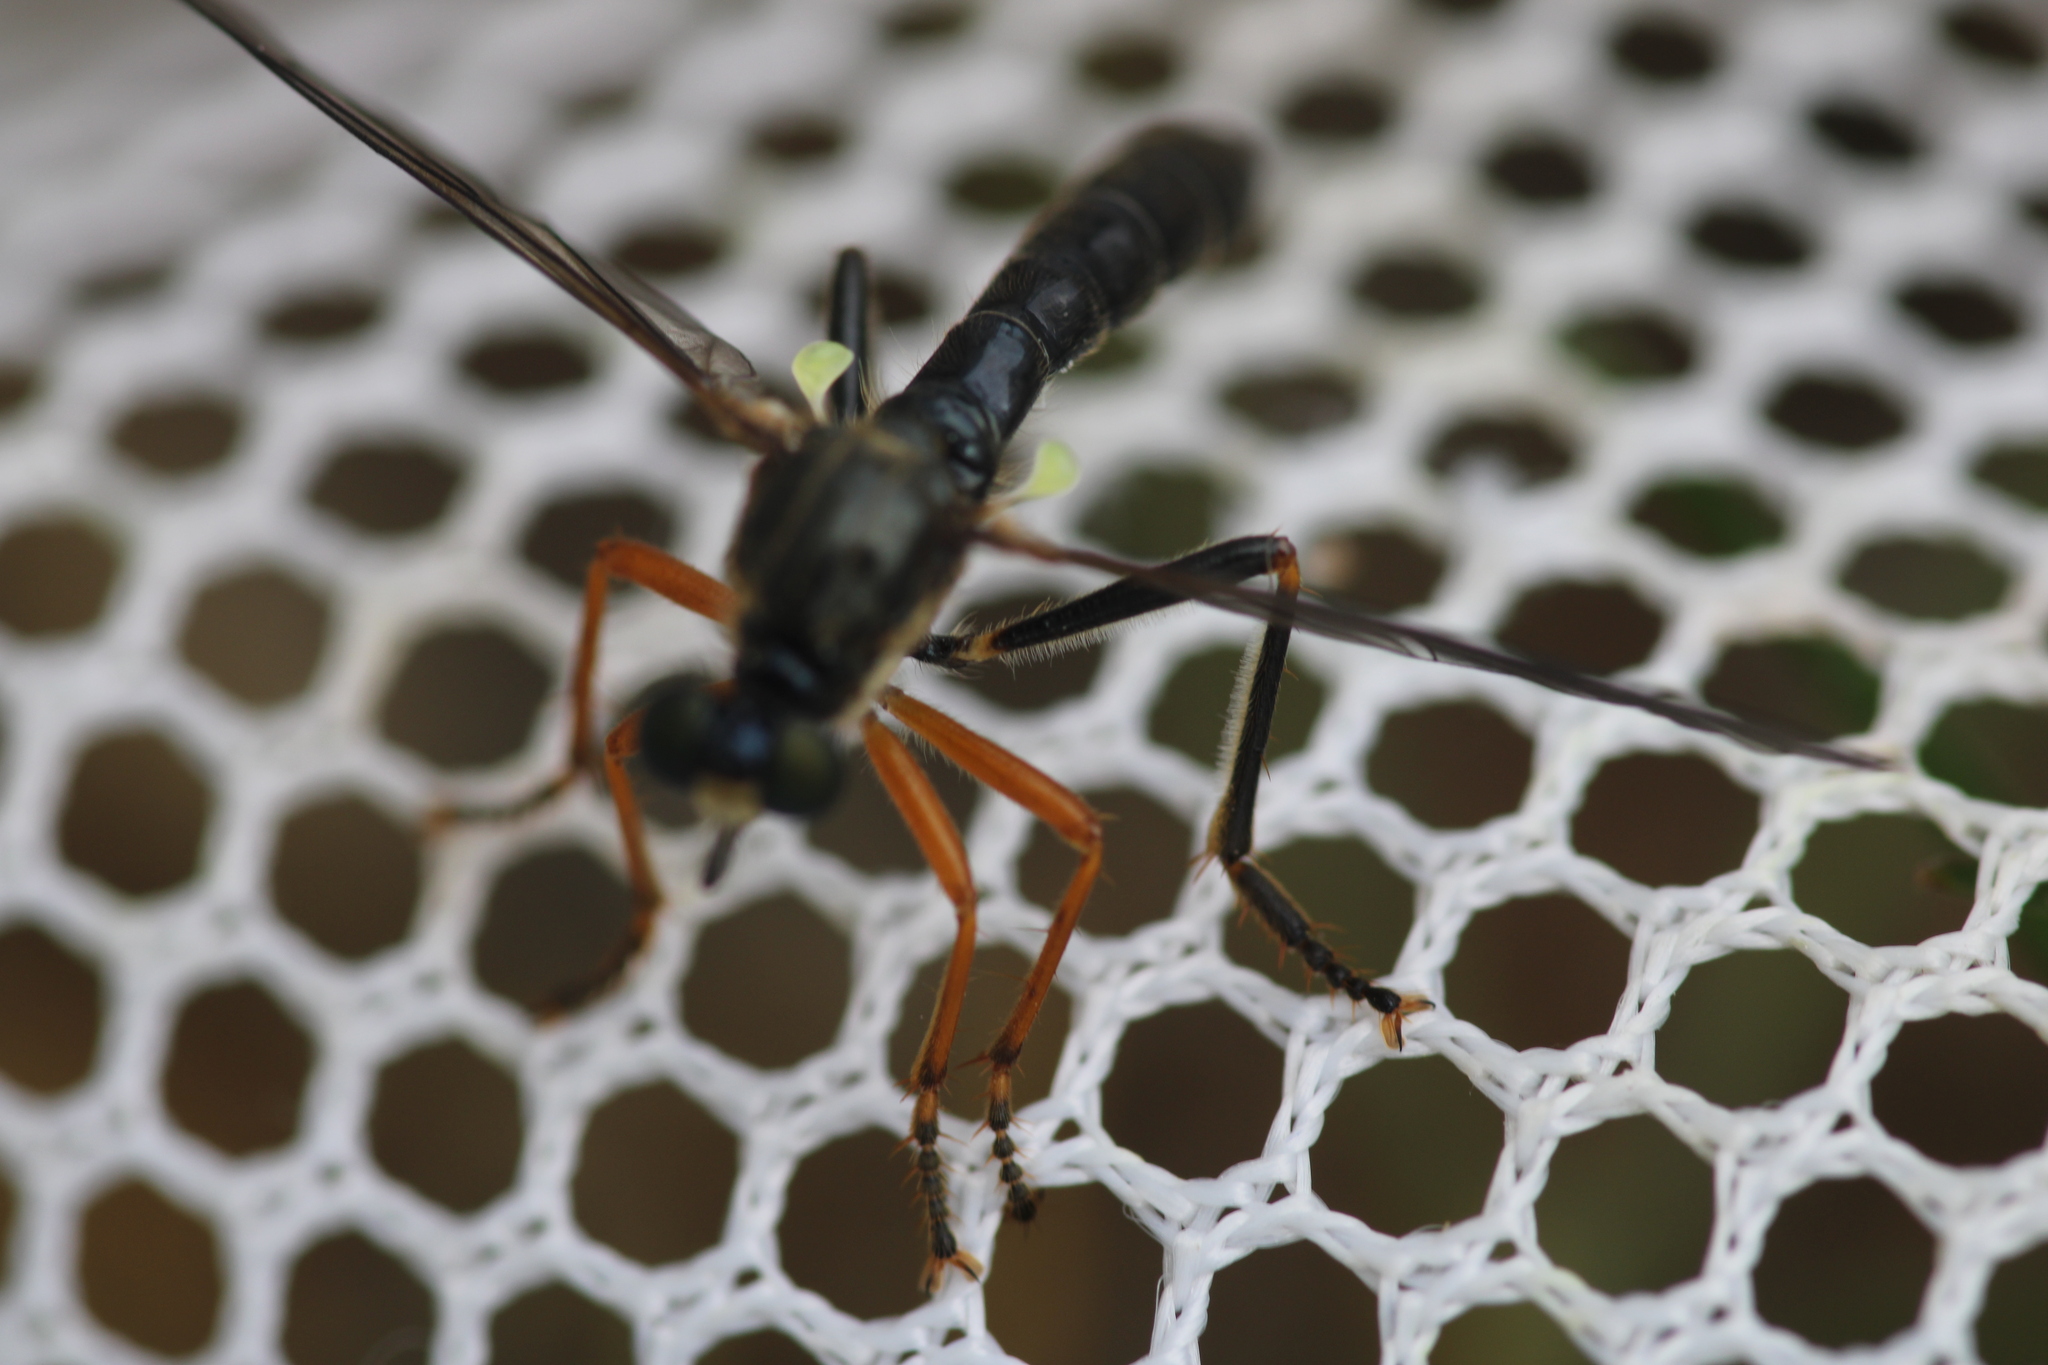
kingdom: Animalia
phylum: Arthropoda
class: Insecta
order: Diptera
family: Asilidae
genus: Dioctria
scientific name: Dioctria rufipes
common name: Common red-legged robberfly
